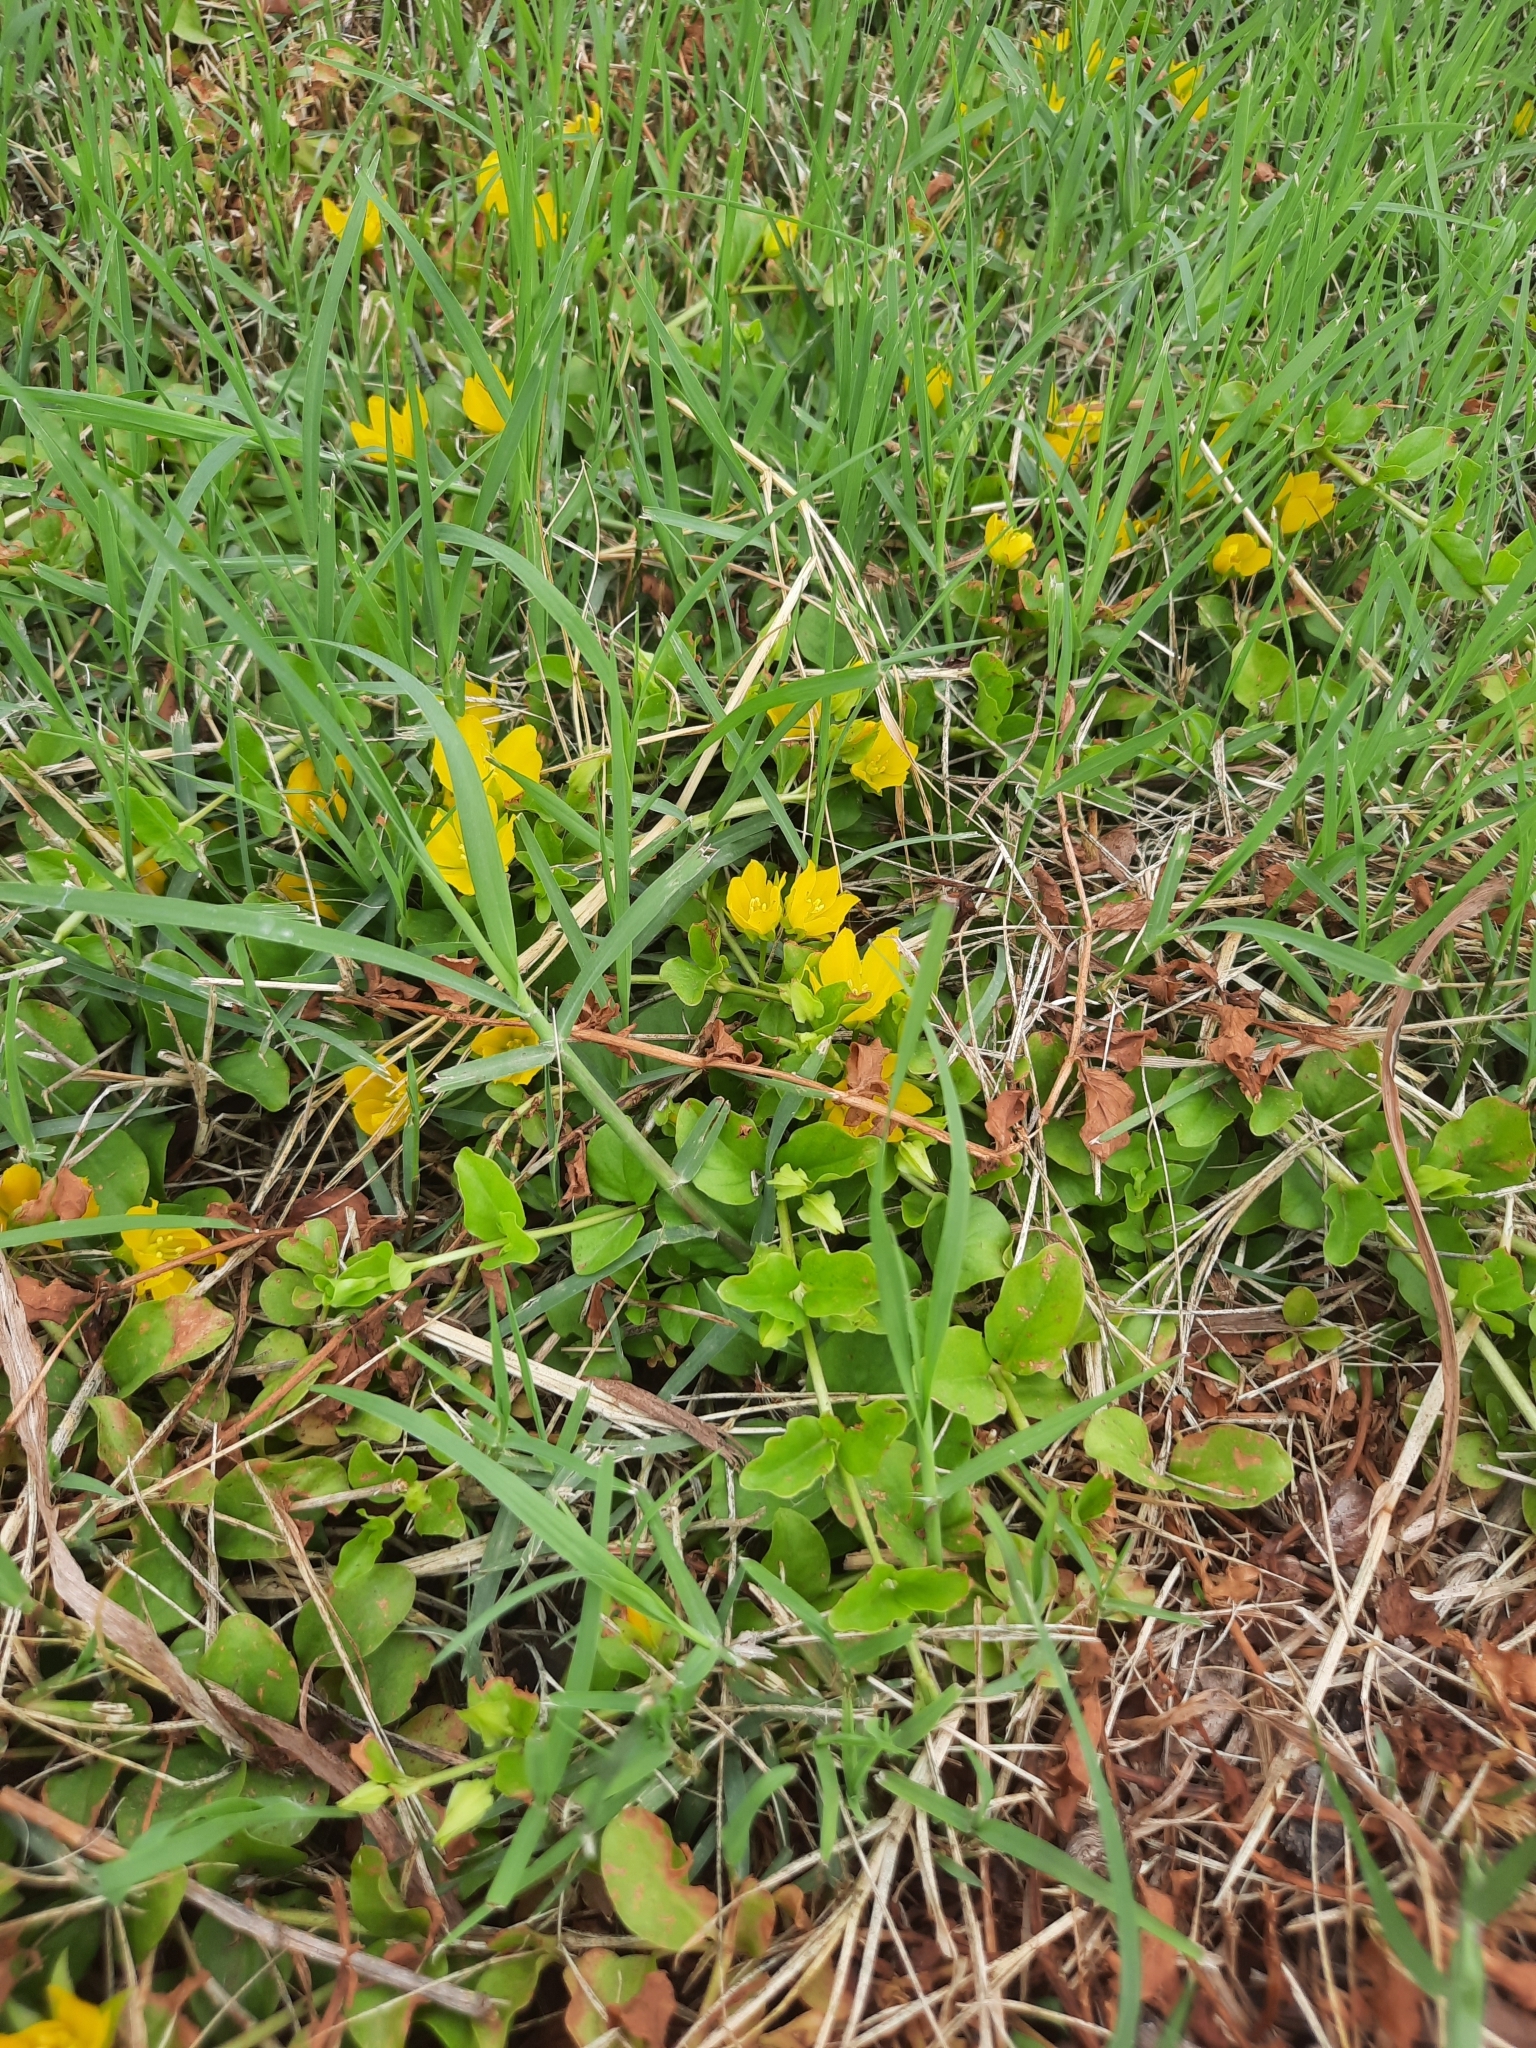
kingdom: Plantae
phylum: Tracheophyta
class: Magnoliopsida
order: Ericales
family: Primulaceae
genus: Lysimachia
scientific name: Lysimachia nummularia
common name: Moneywort
